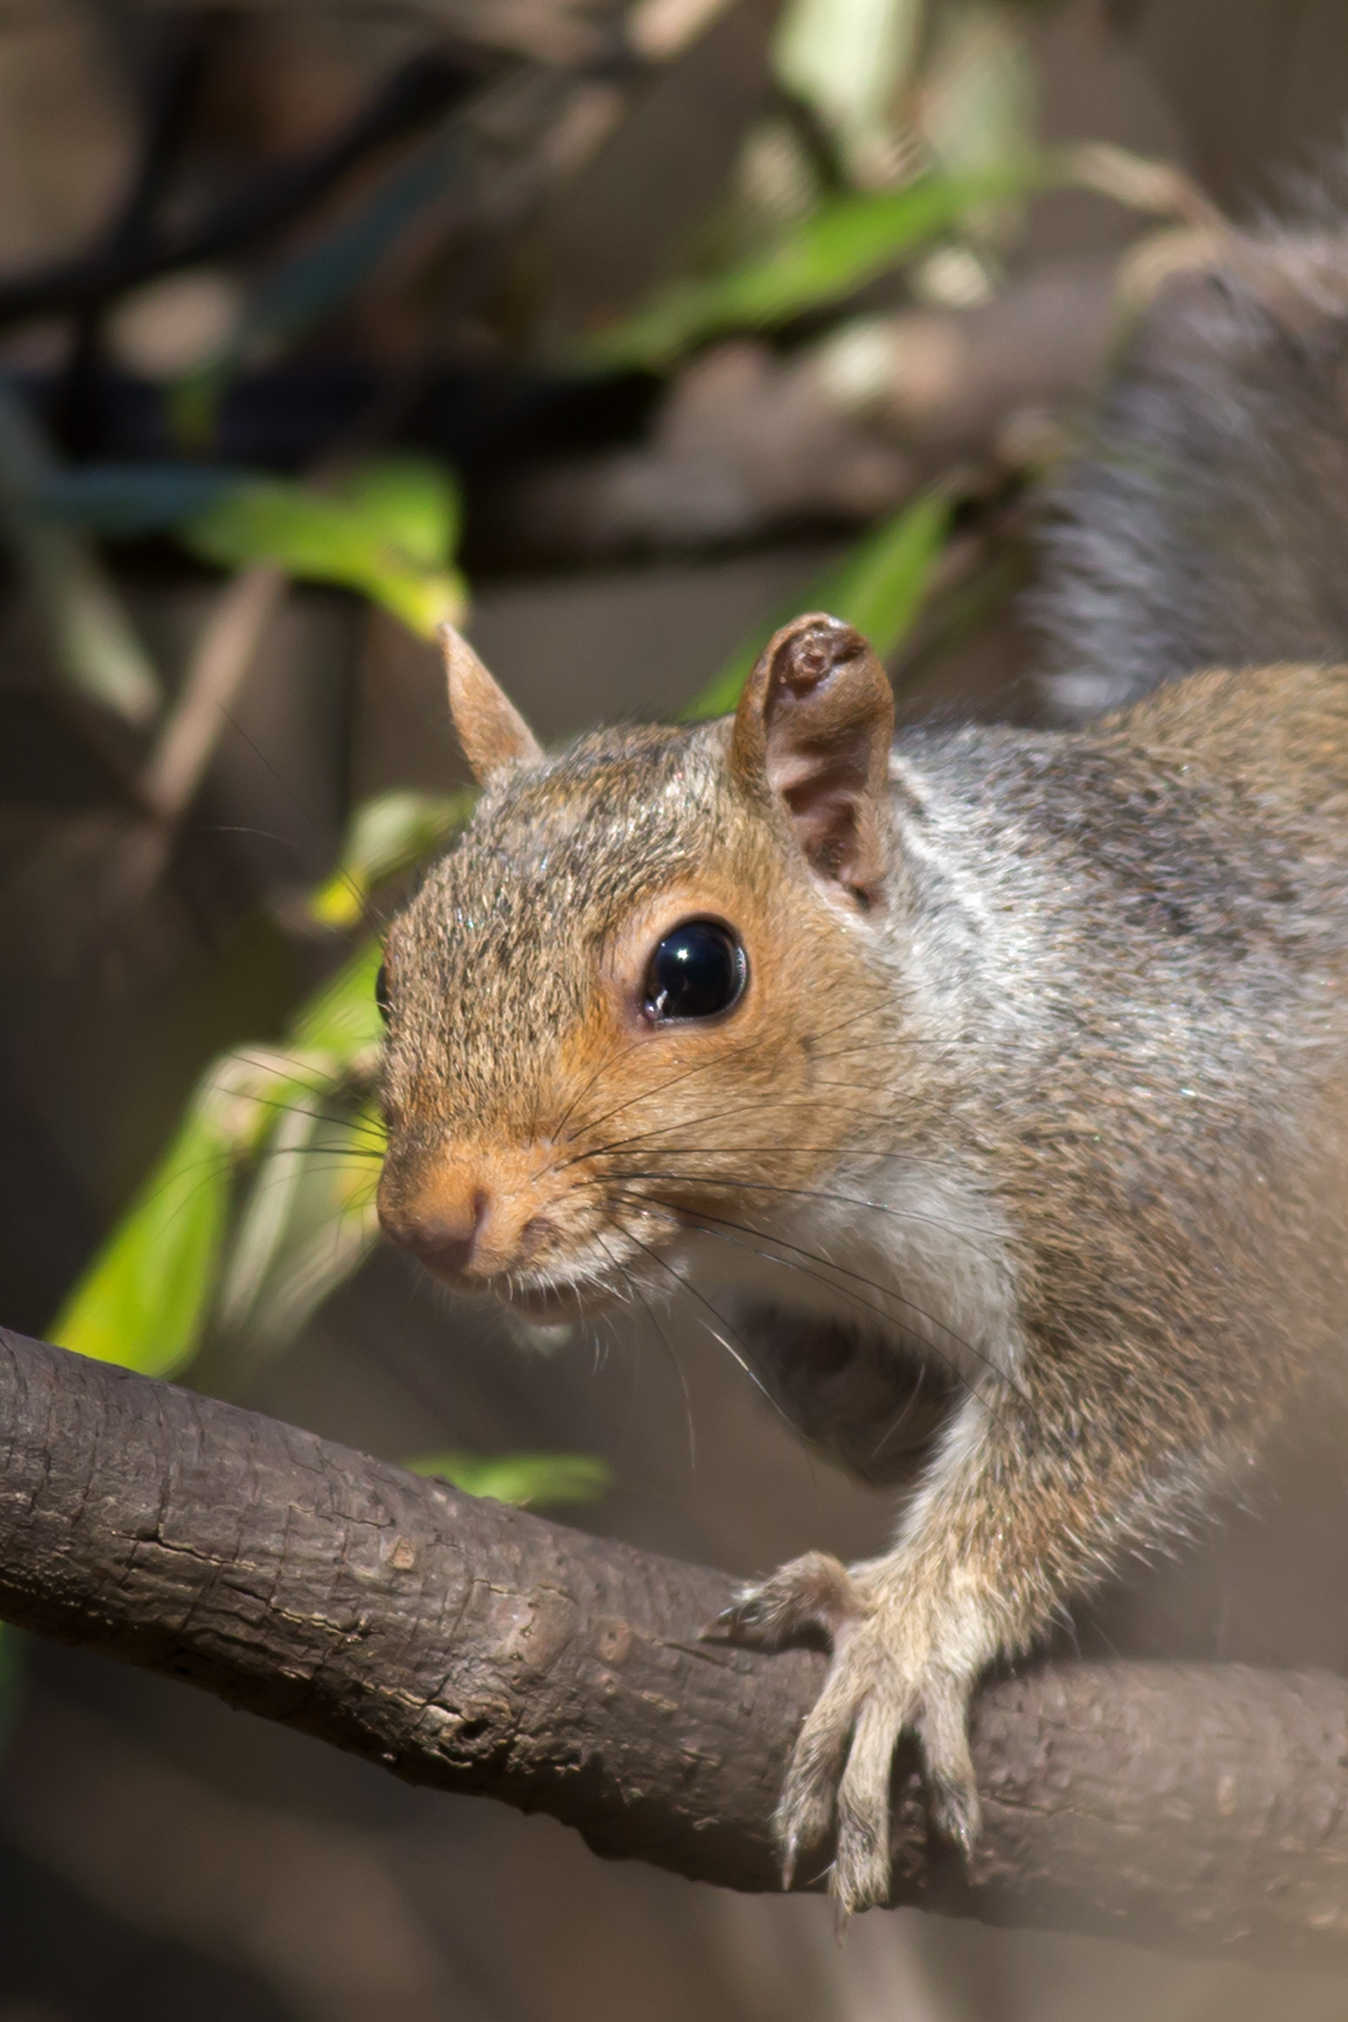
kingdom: Animalia
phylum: Chordata
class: Mammalia
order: Rodentia
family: Sciuridae
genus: Sciurus
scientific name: Sciurus carolinensis
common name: Eastern gray squirrel
